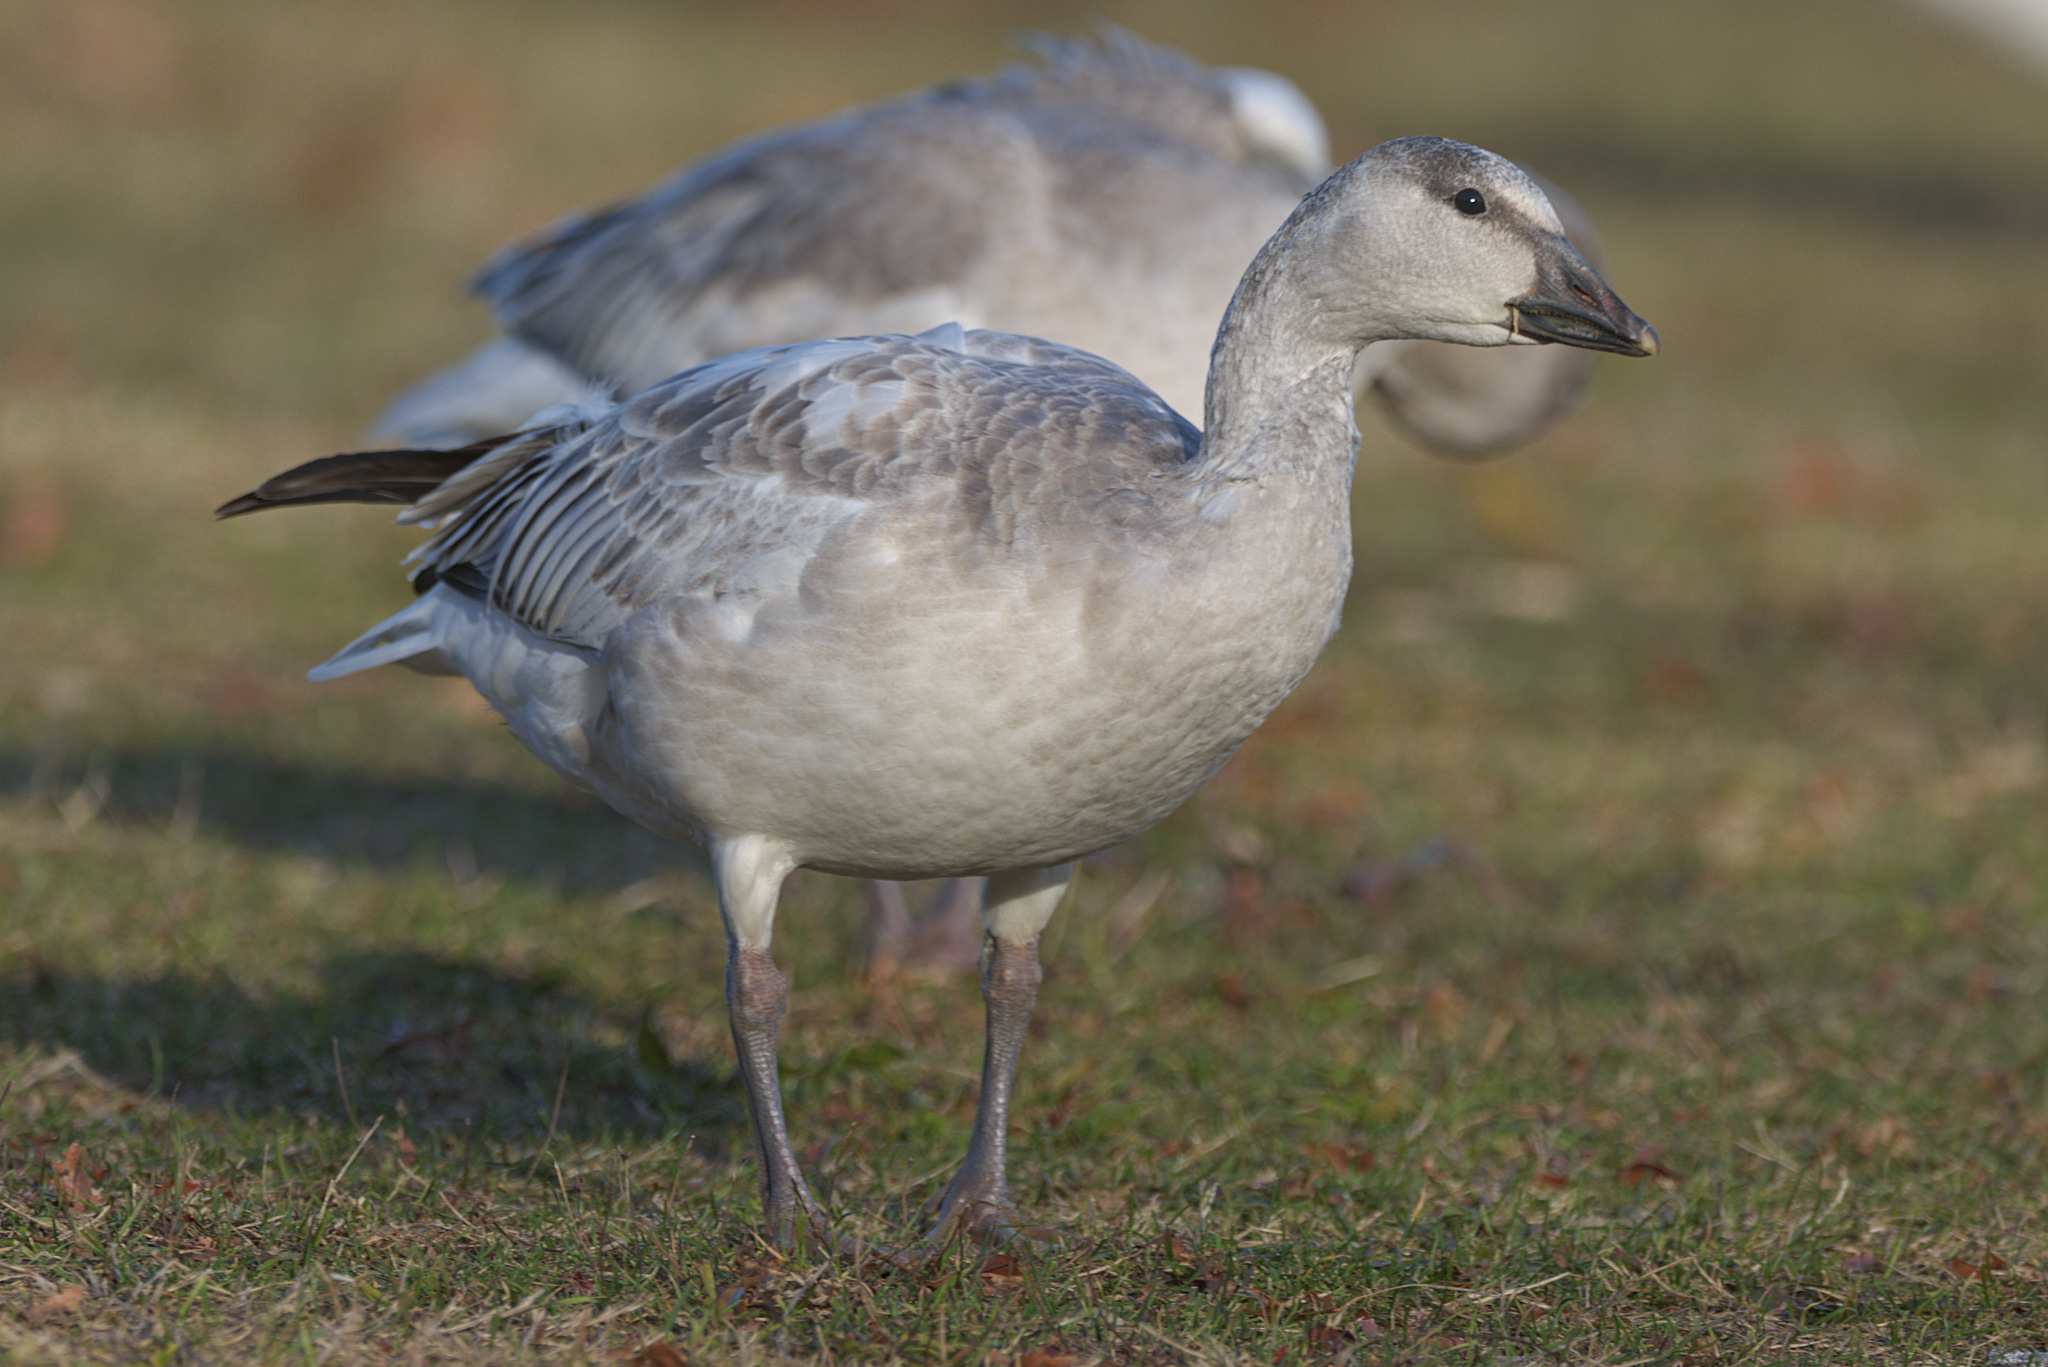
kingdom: Animalia
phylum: Chordata
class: Aves
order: Anseriformes
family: Anatidae
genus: Anser
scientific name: Anser caerulescens
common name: Snow goose
